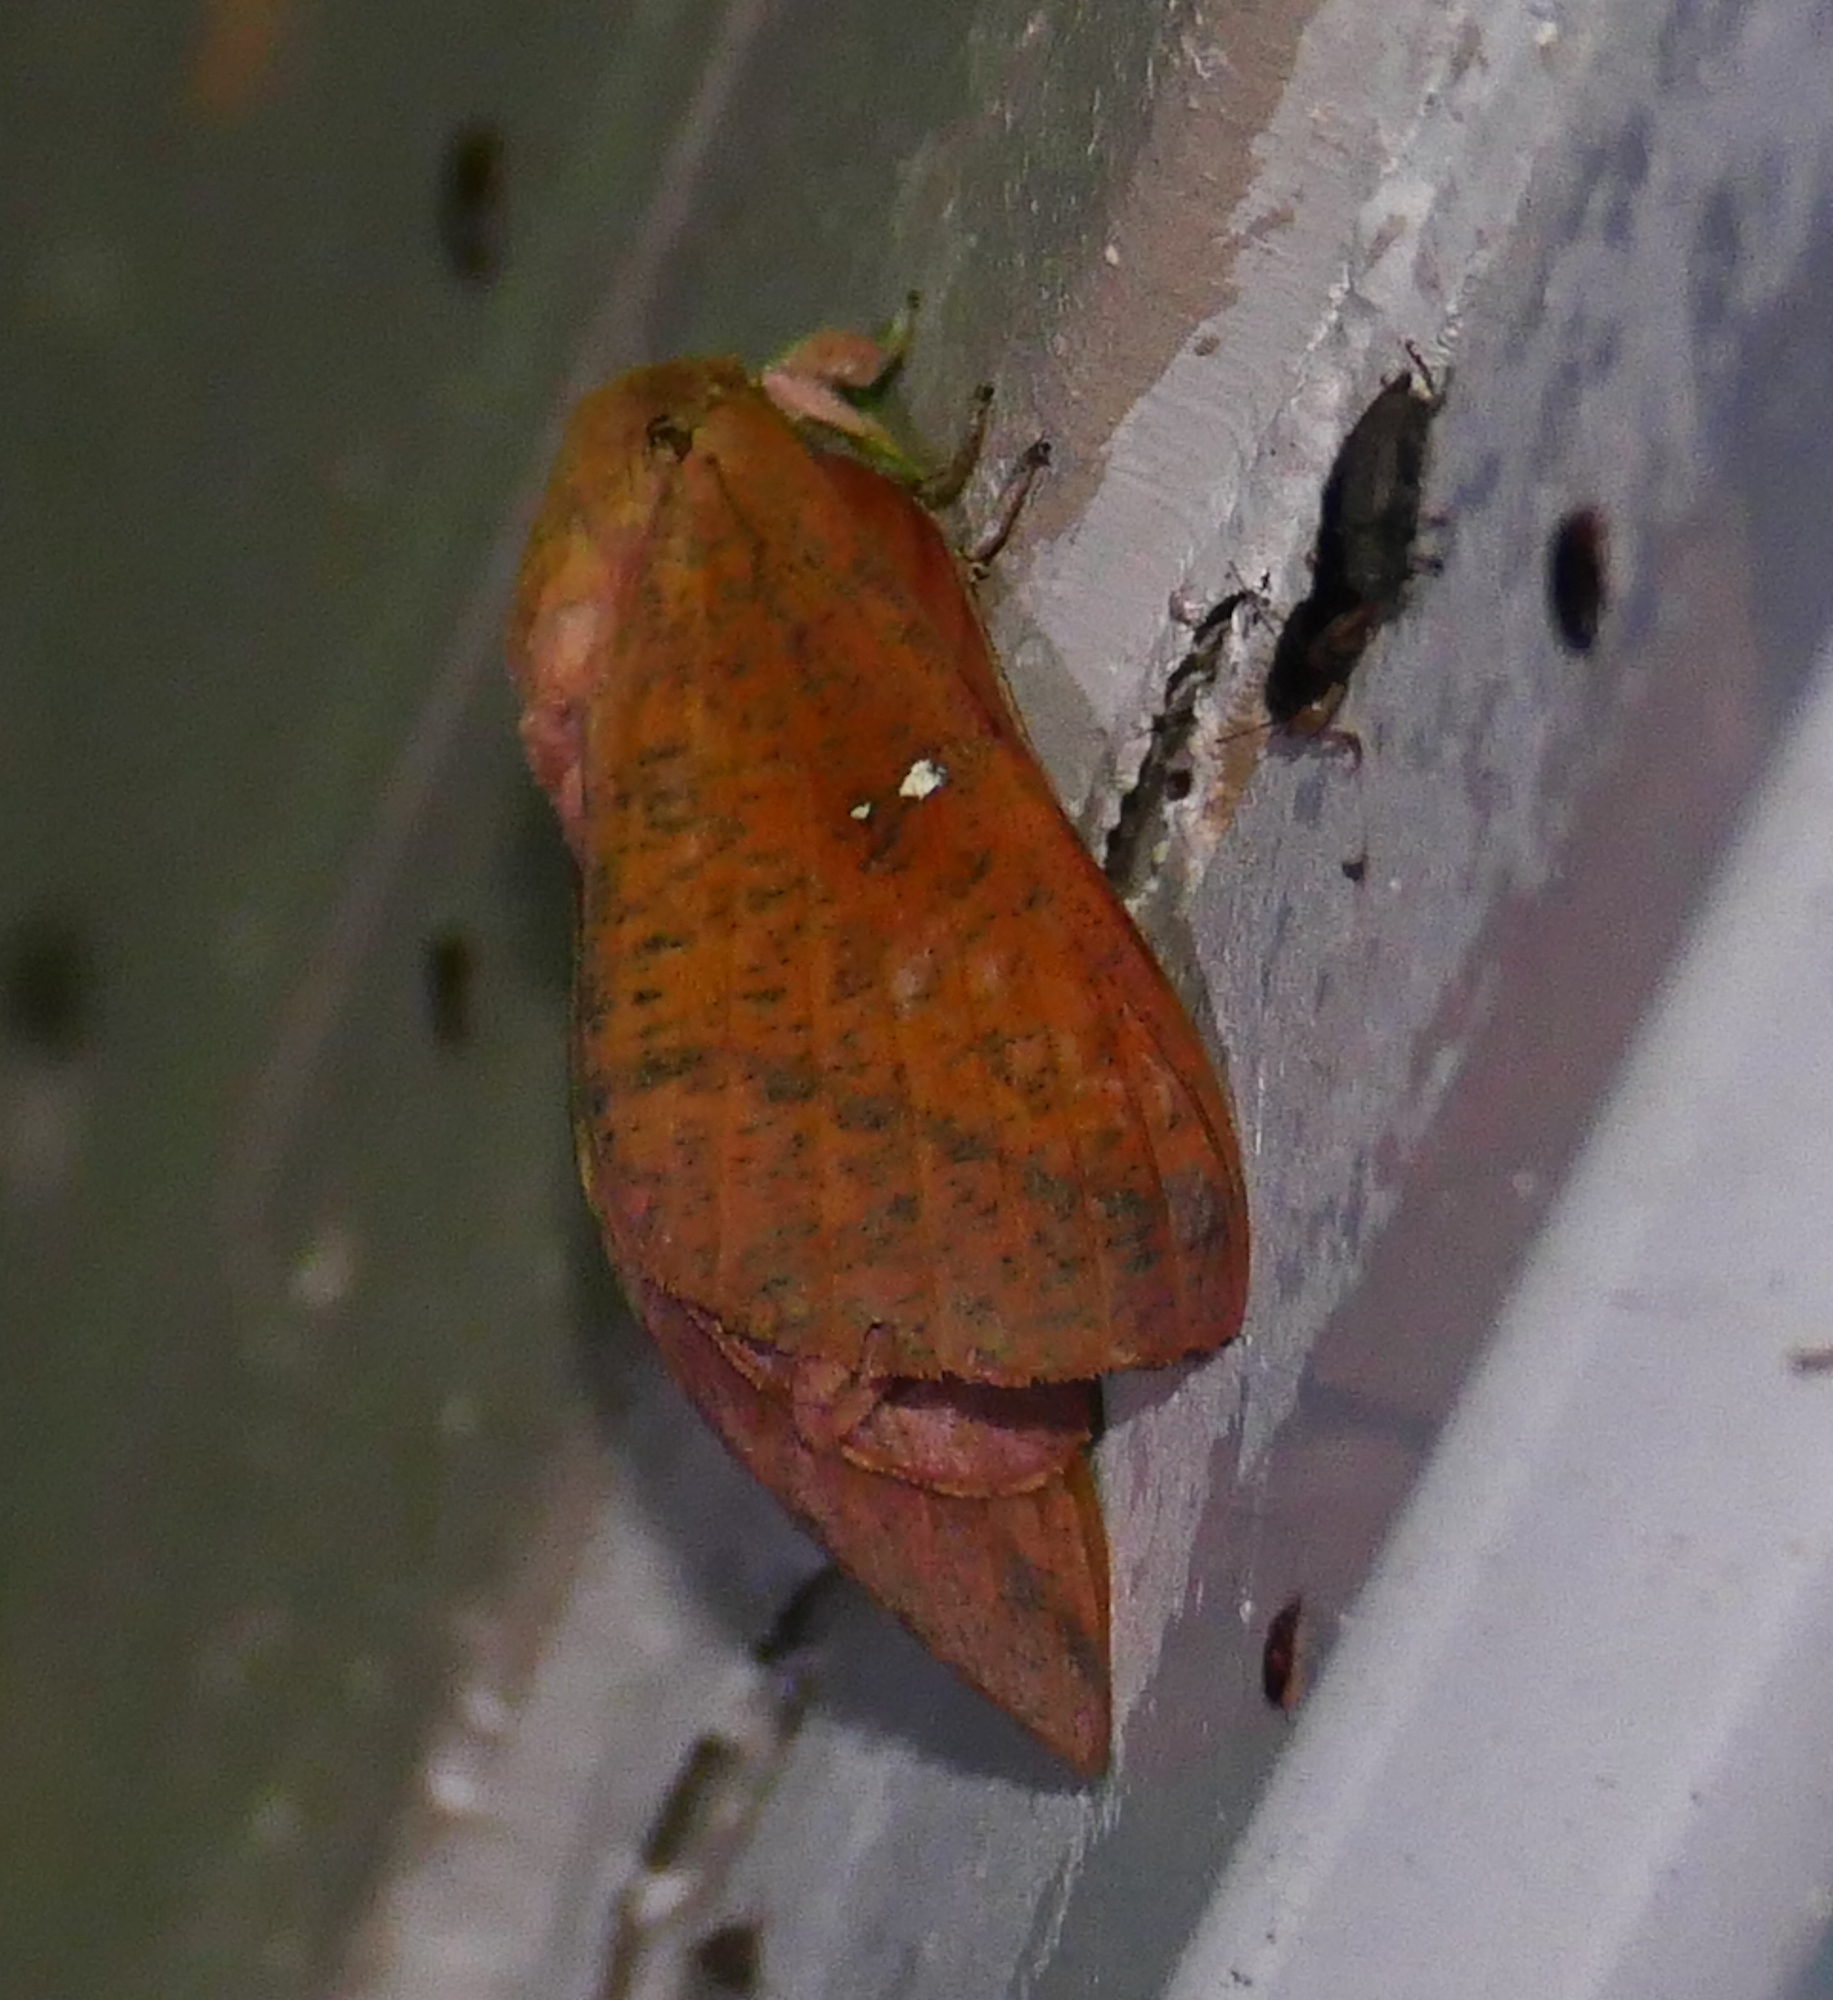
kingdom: Animalia
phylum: Arthropoda
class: Insecta
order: Lepidoptera
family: Saturniidae
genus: Syssphinx
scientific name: Syssphinx bicolor
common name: Honey locust moth
